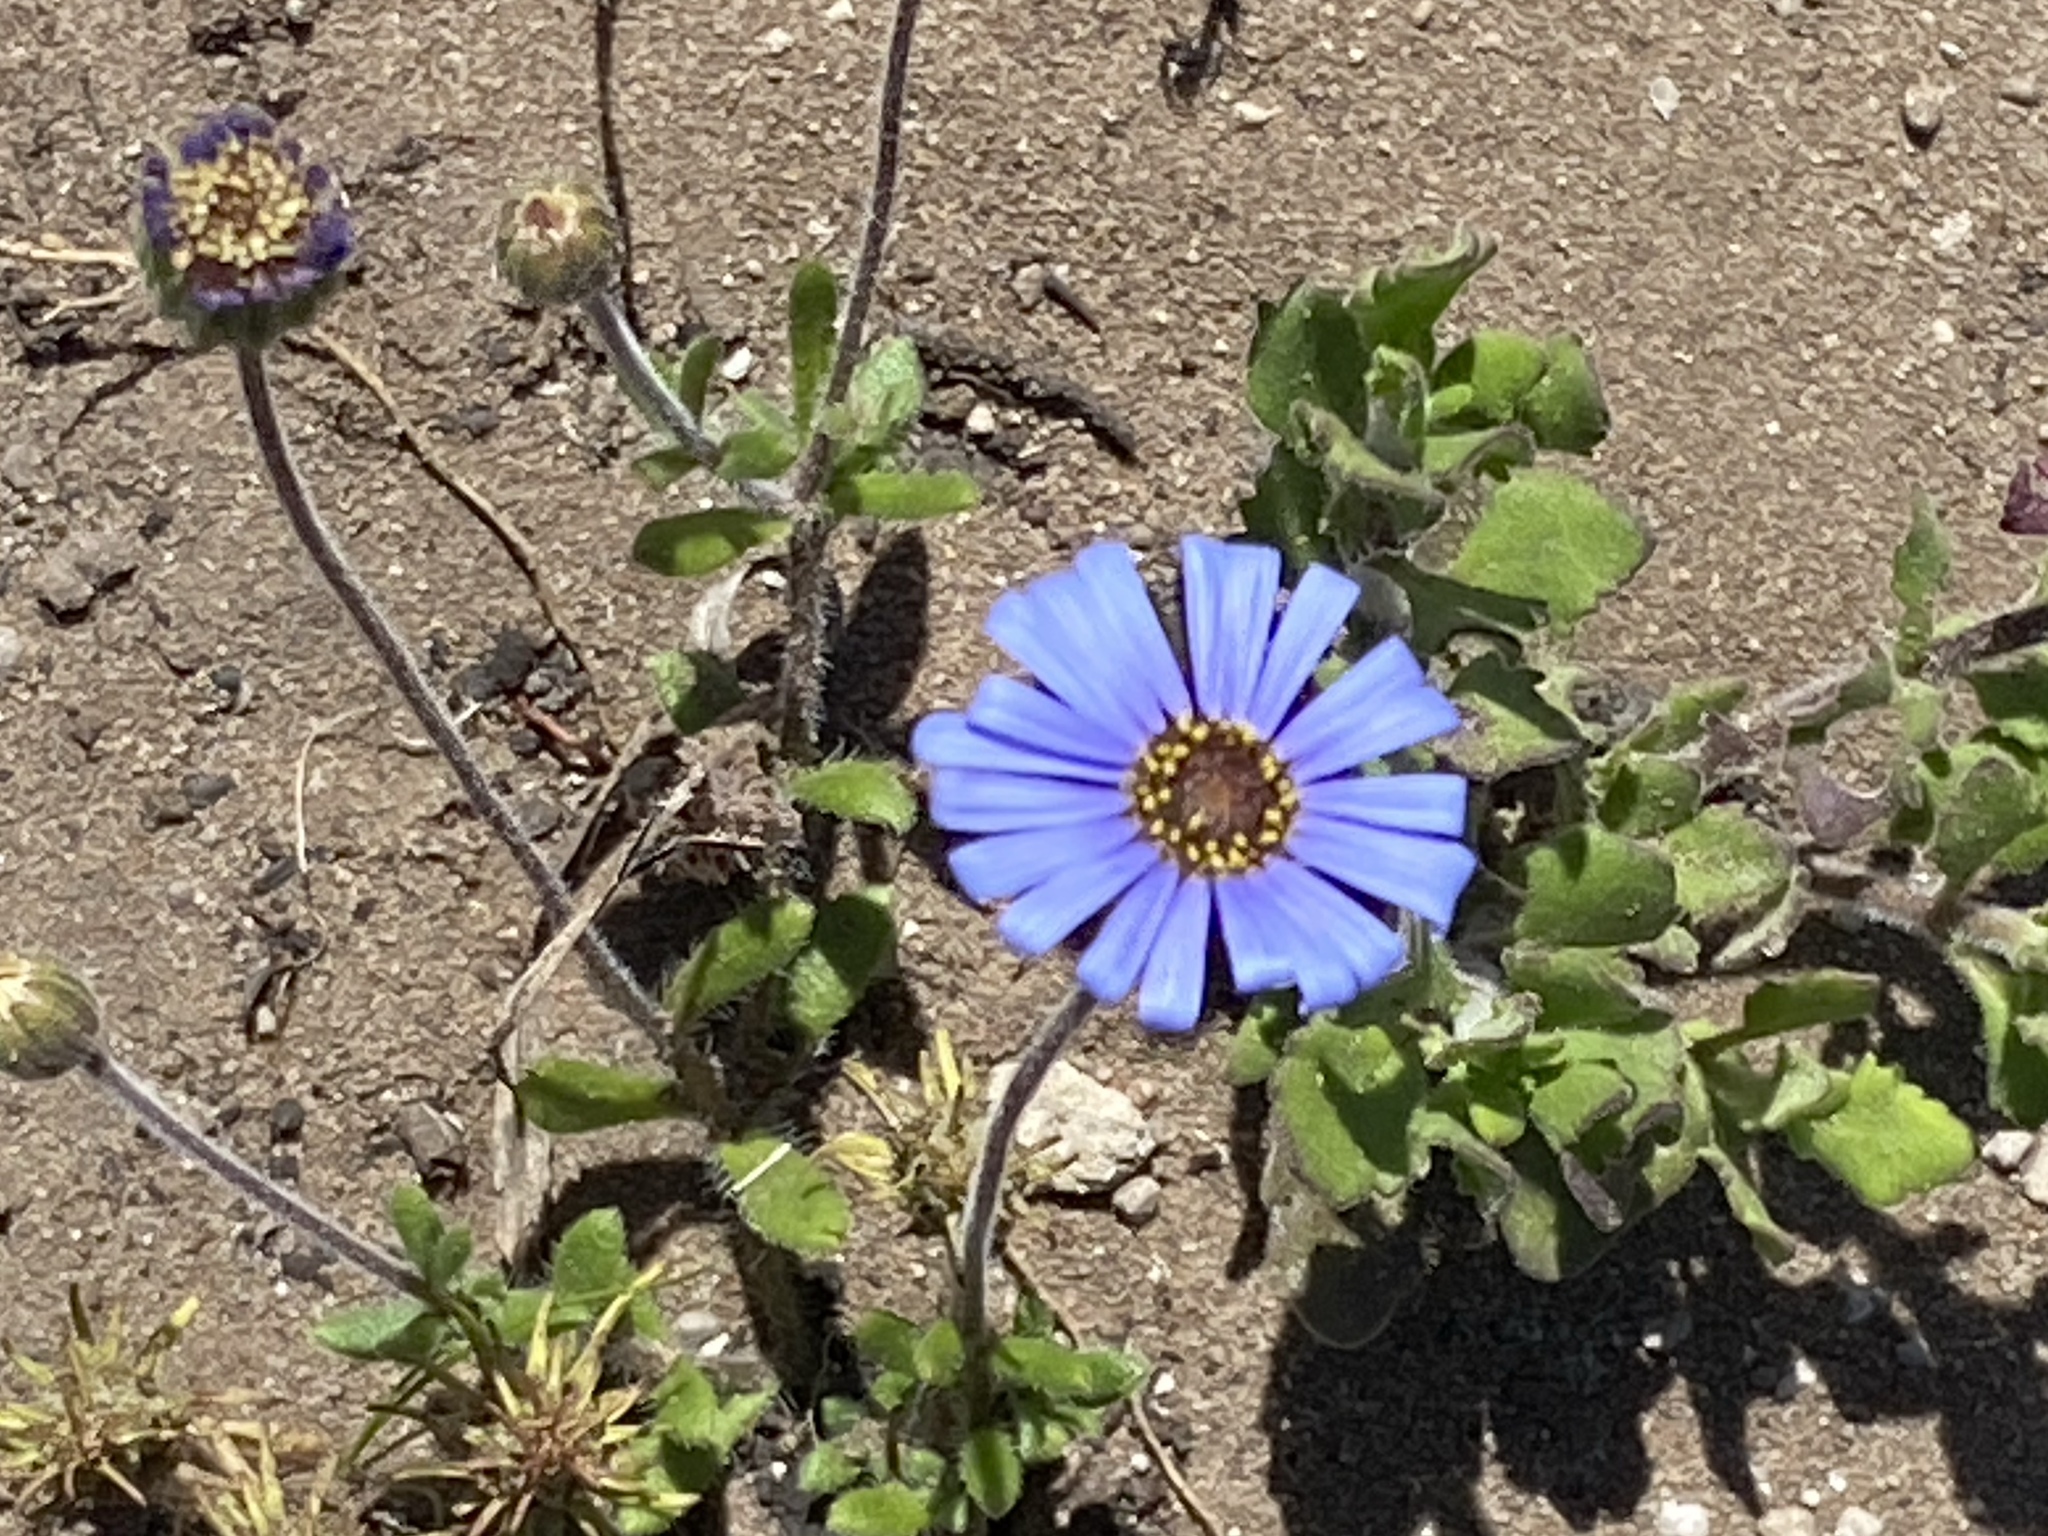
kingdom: Plantae
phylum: Tracheophyta
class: Magnoliopsida
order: Asterales
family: Asteraceae
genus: Felicia
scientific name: Felicia amoena
